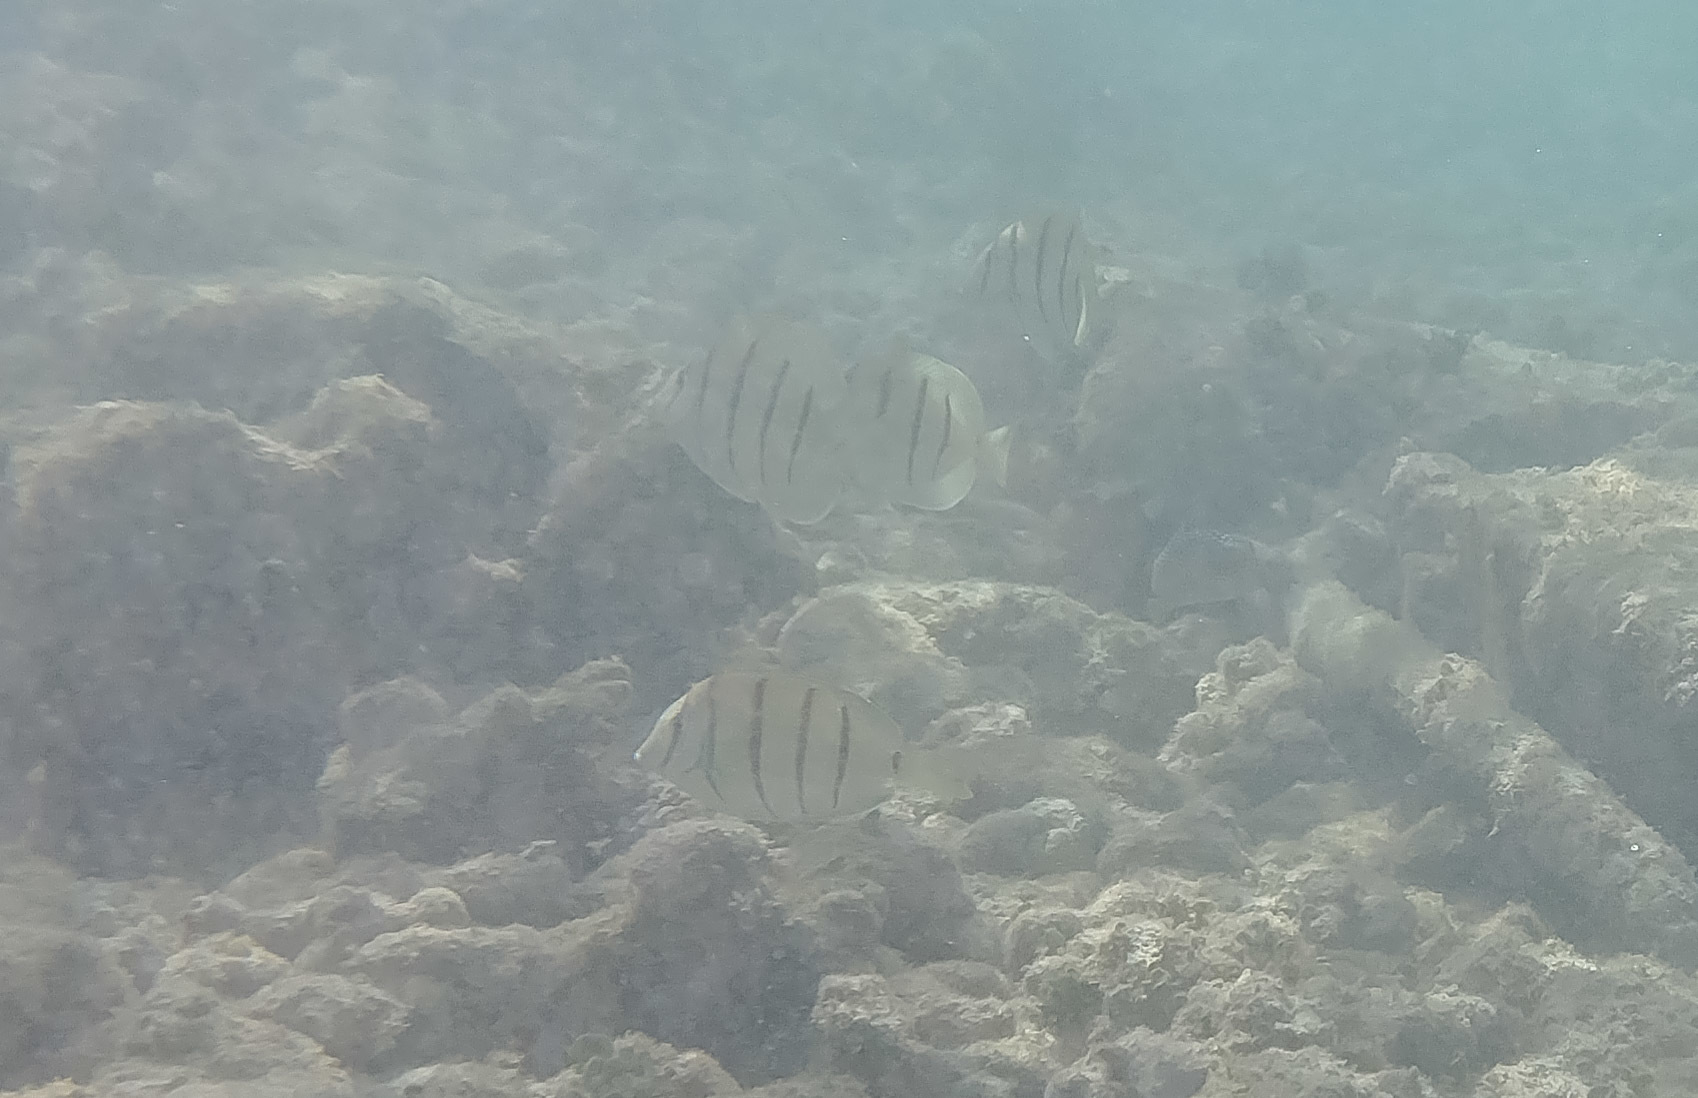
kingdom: Animalia
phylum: Chordata
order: Perciformes
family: Acanthuridae
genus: Acanthurus
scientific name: Acanthurus triostegus
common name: Convict surgeonfish
